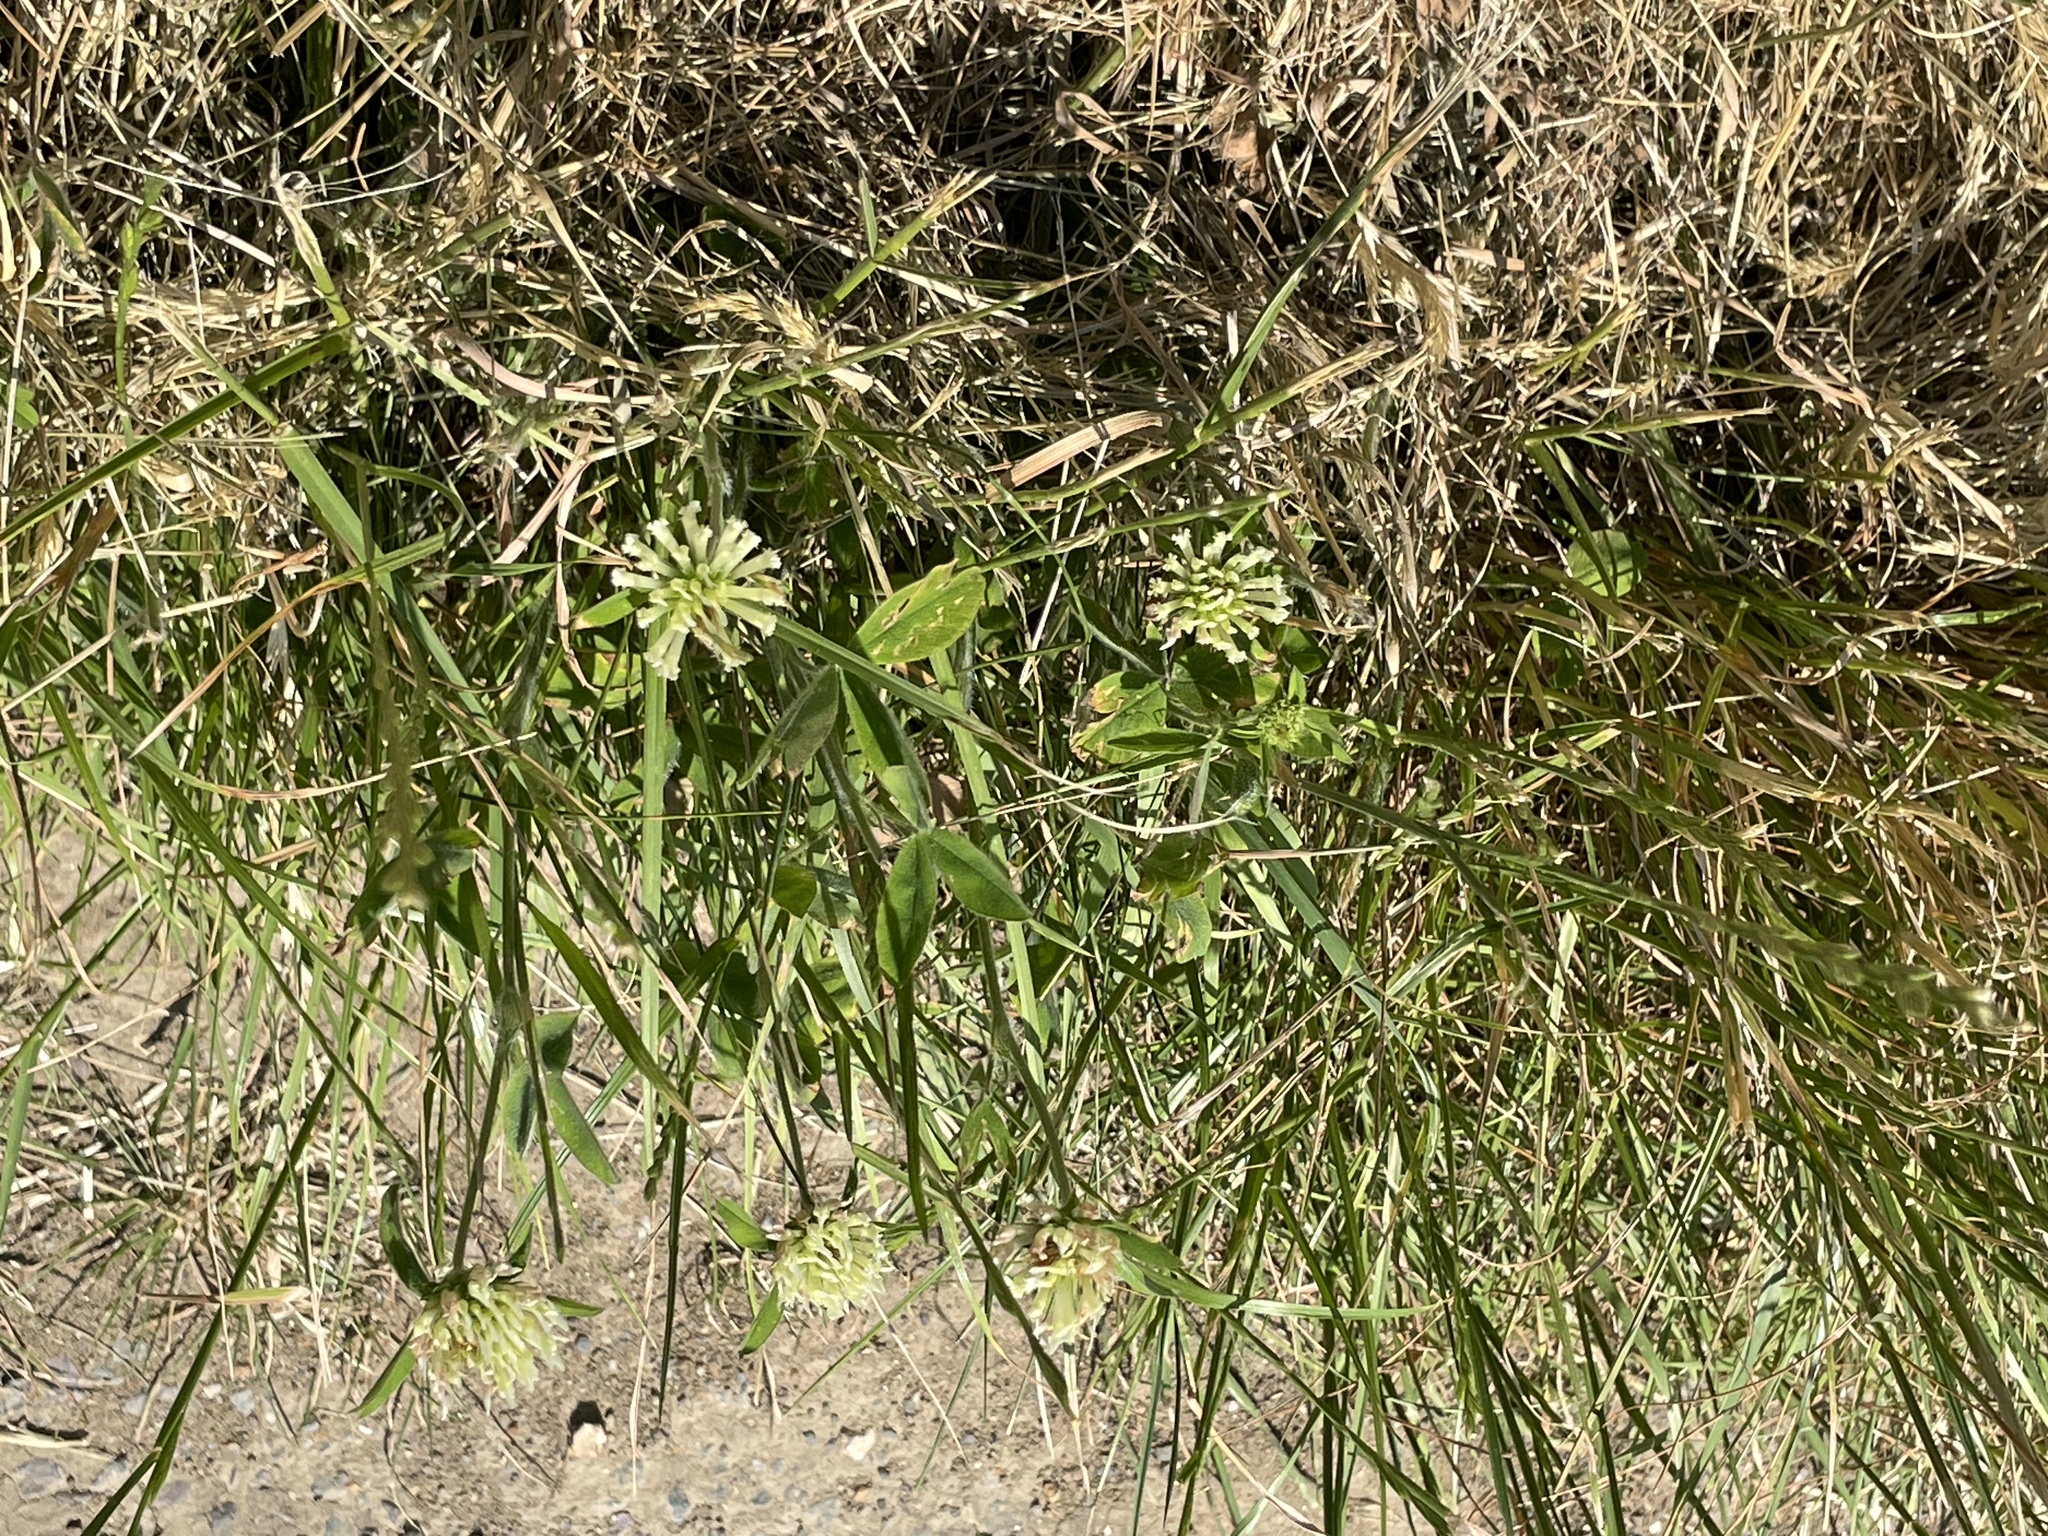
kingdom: Plantae
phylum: Tracheophyta
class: Magnoliopsida
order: Fabales
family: Fabaceae
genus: Trifolium
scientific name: Trifolium ochroleucon
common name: Sulphur clover
